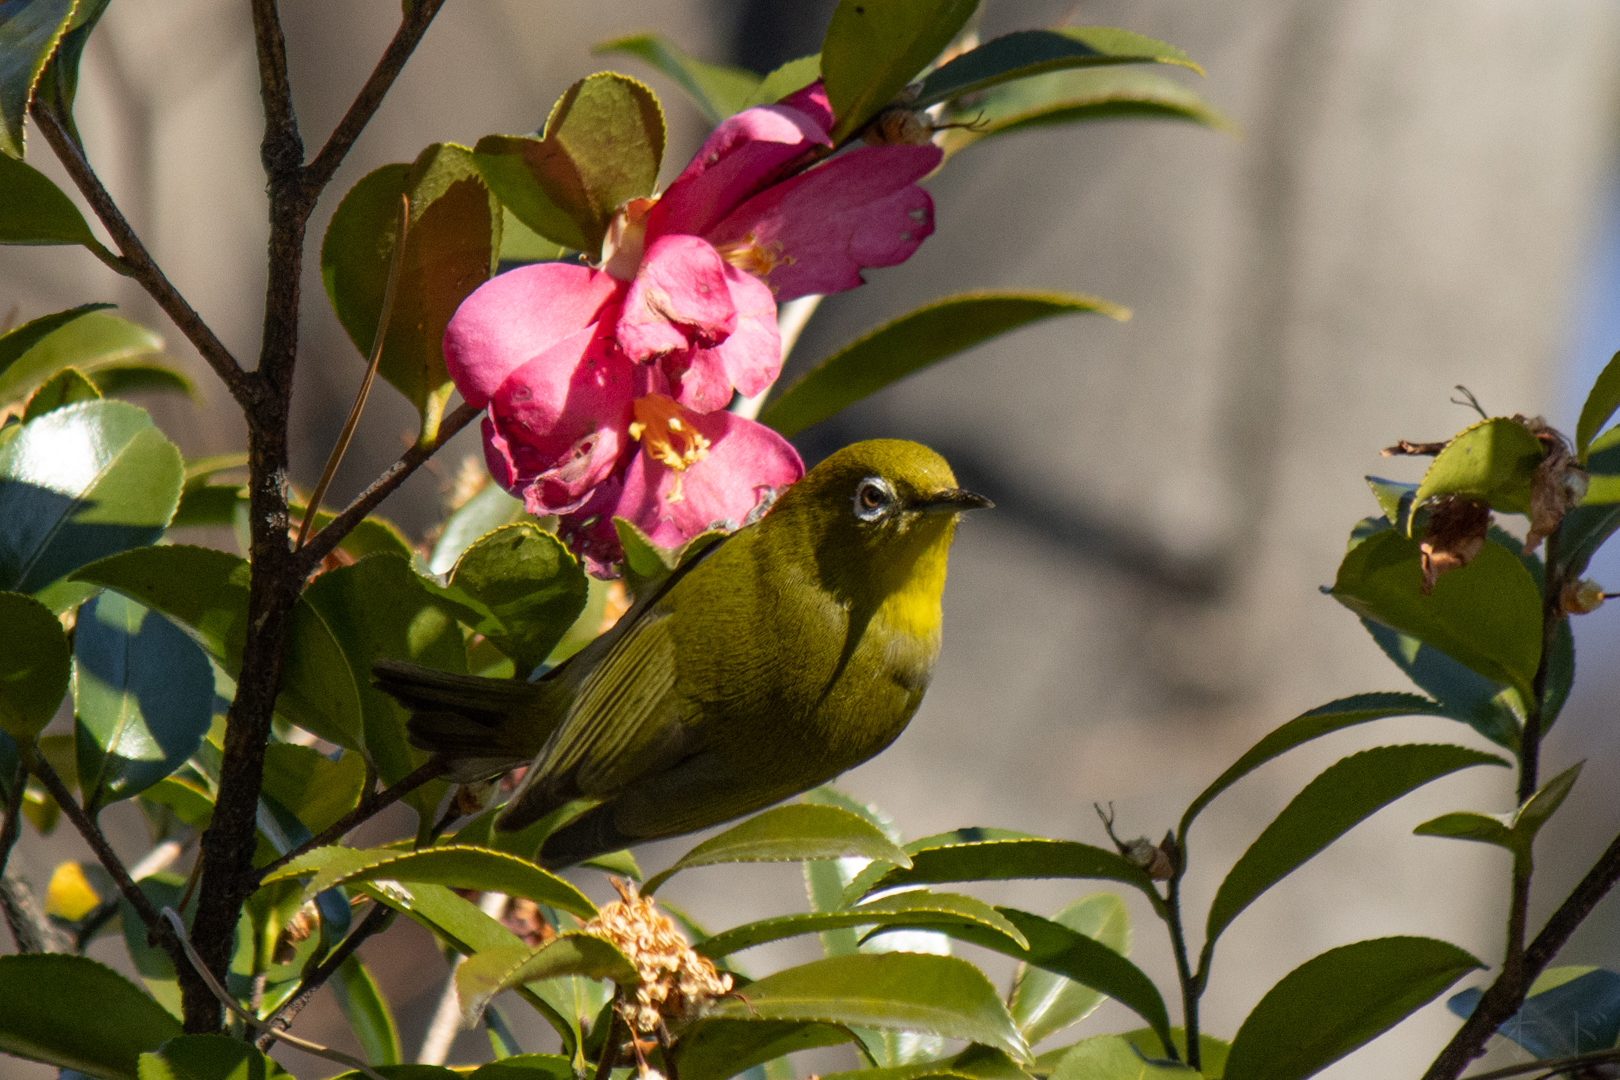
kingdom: Animalia
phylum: Chordata
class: Aves
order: Passeriformes
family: Zosteropidae
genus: Zosterops
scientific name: Zosterops japonicus
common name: Japanese white-eye
